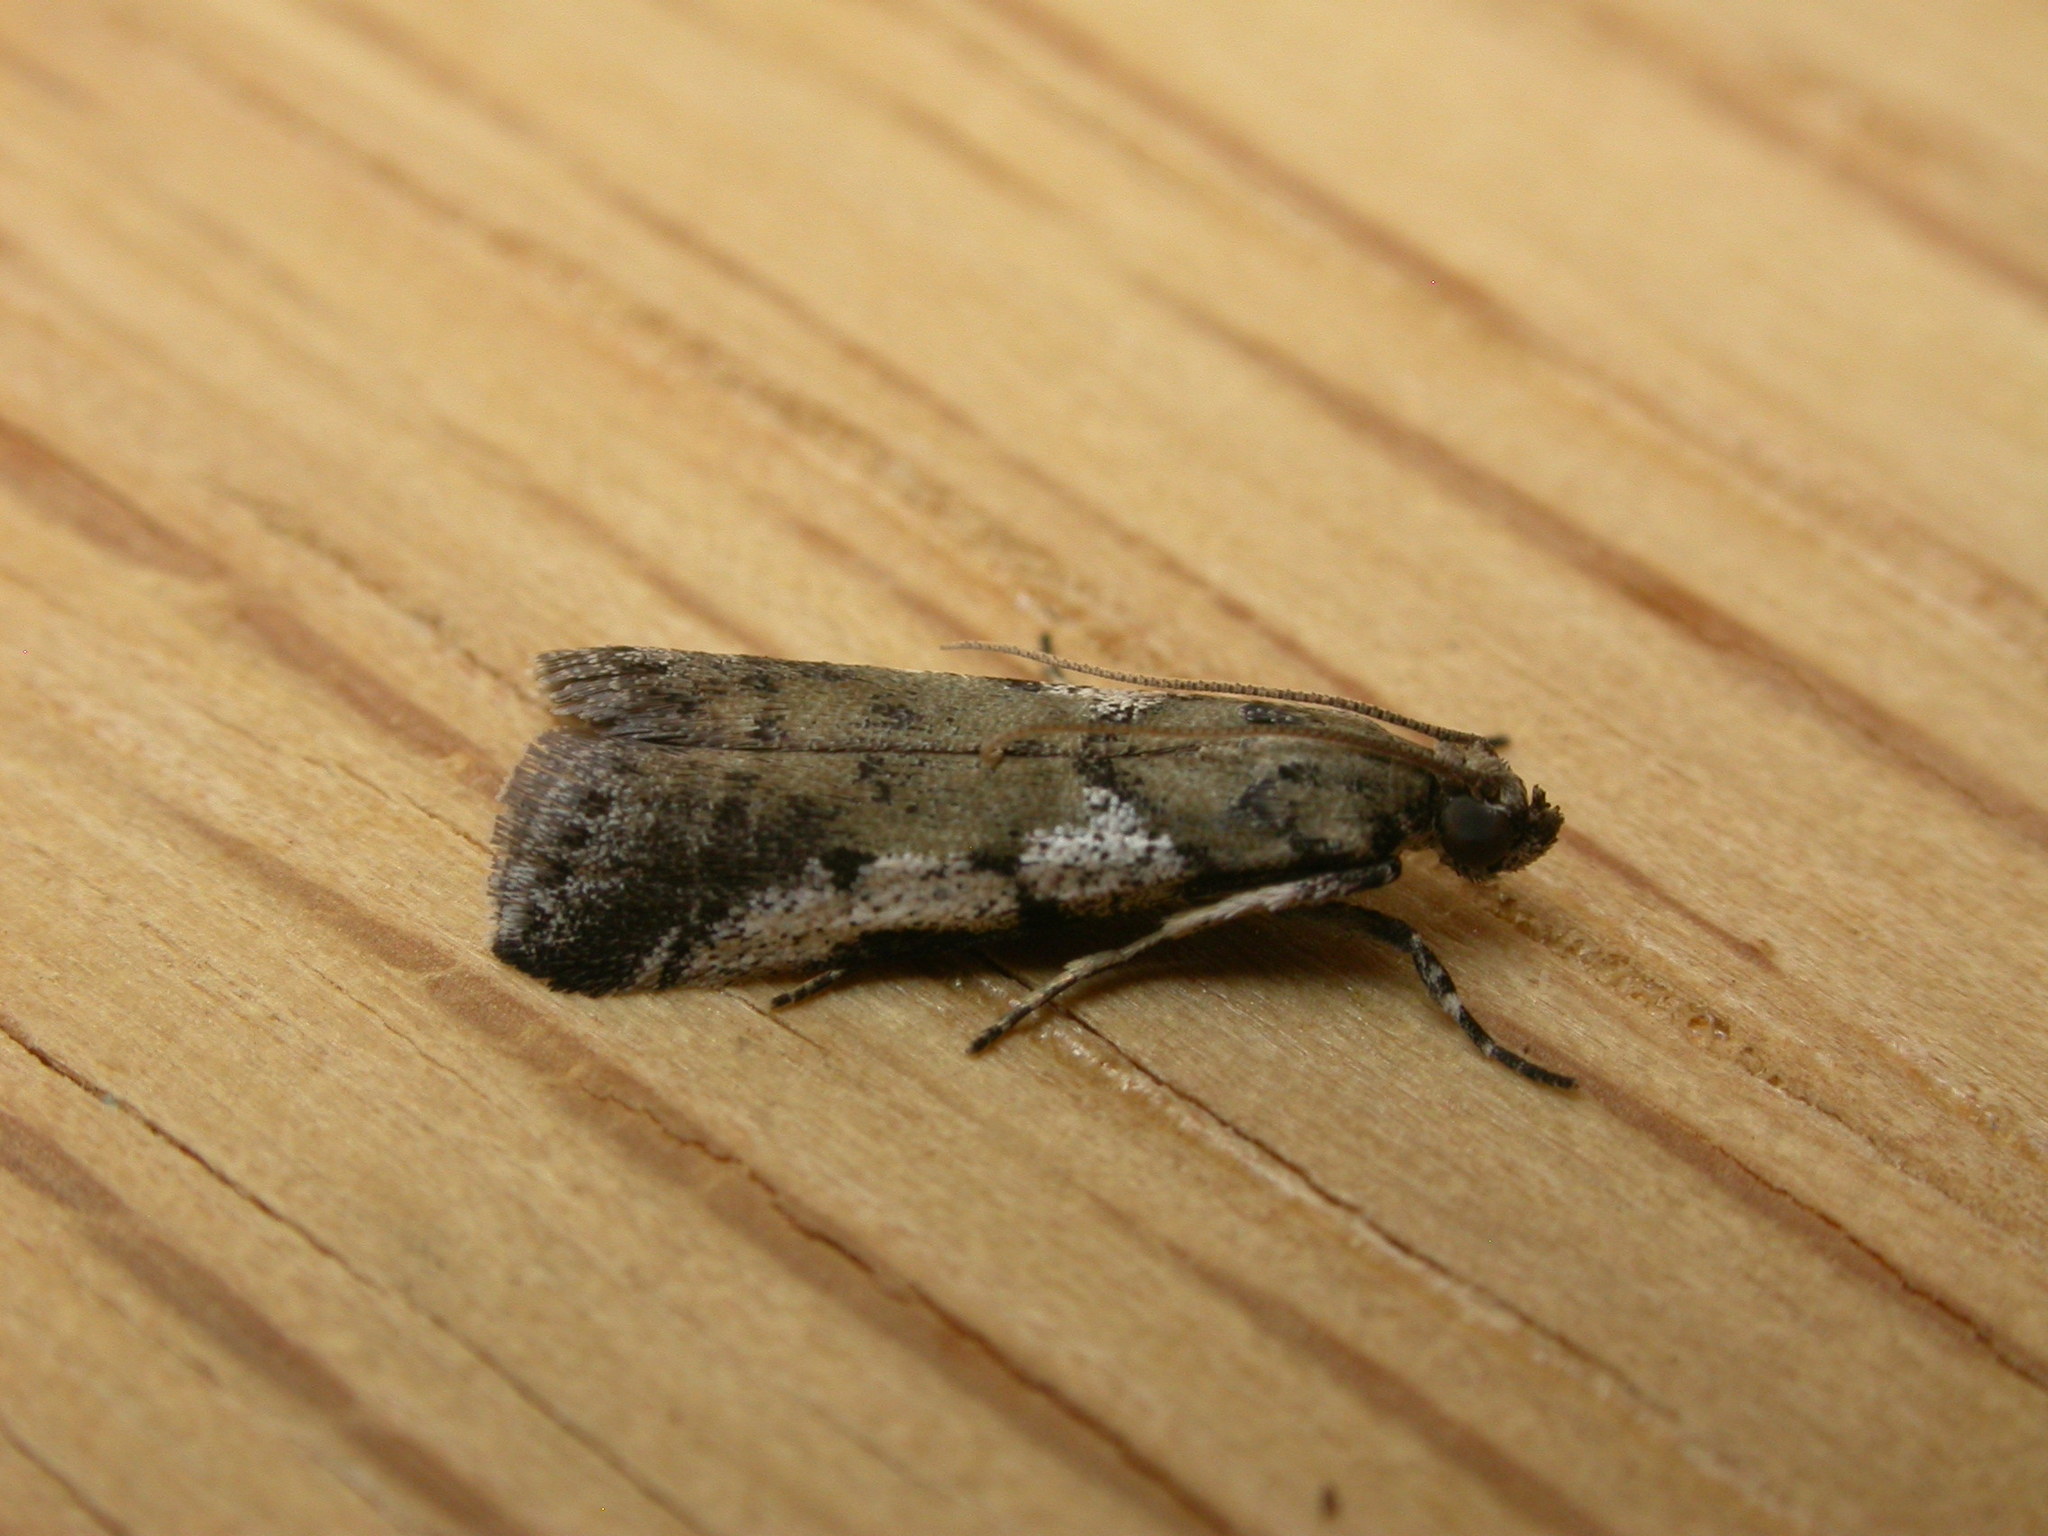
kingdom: Animalia
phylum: Arthropoda
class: Insecta
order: Lepidoptera
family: Pyralidae
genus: Assara
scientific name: Assara holophragma
